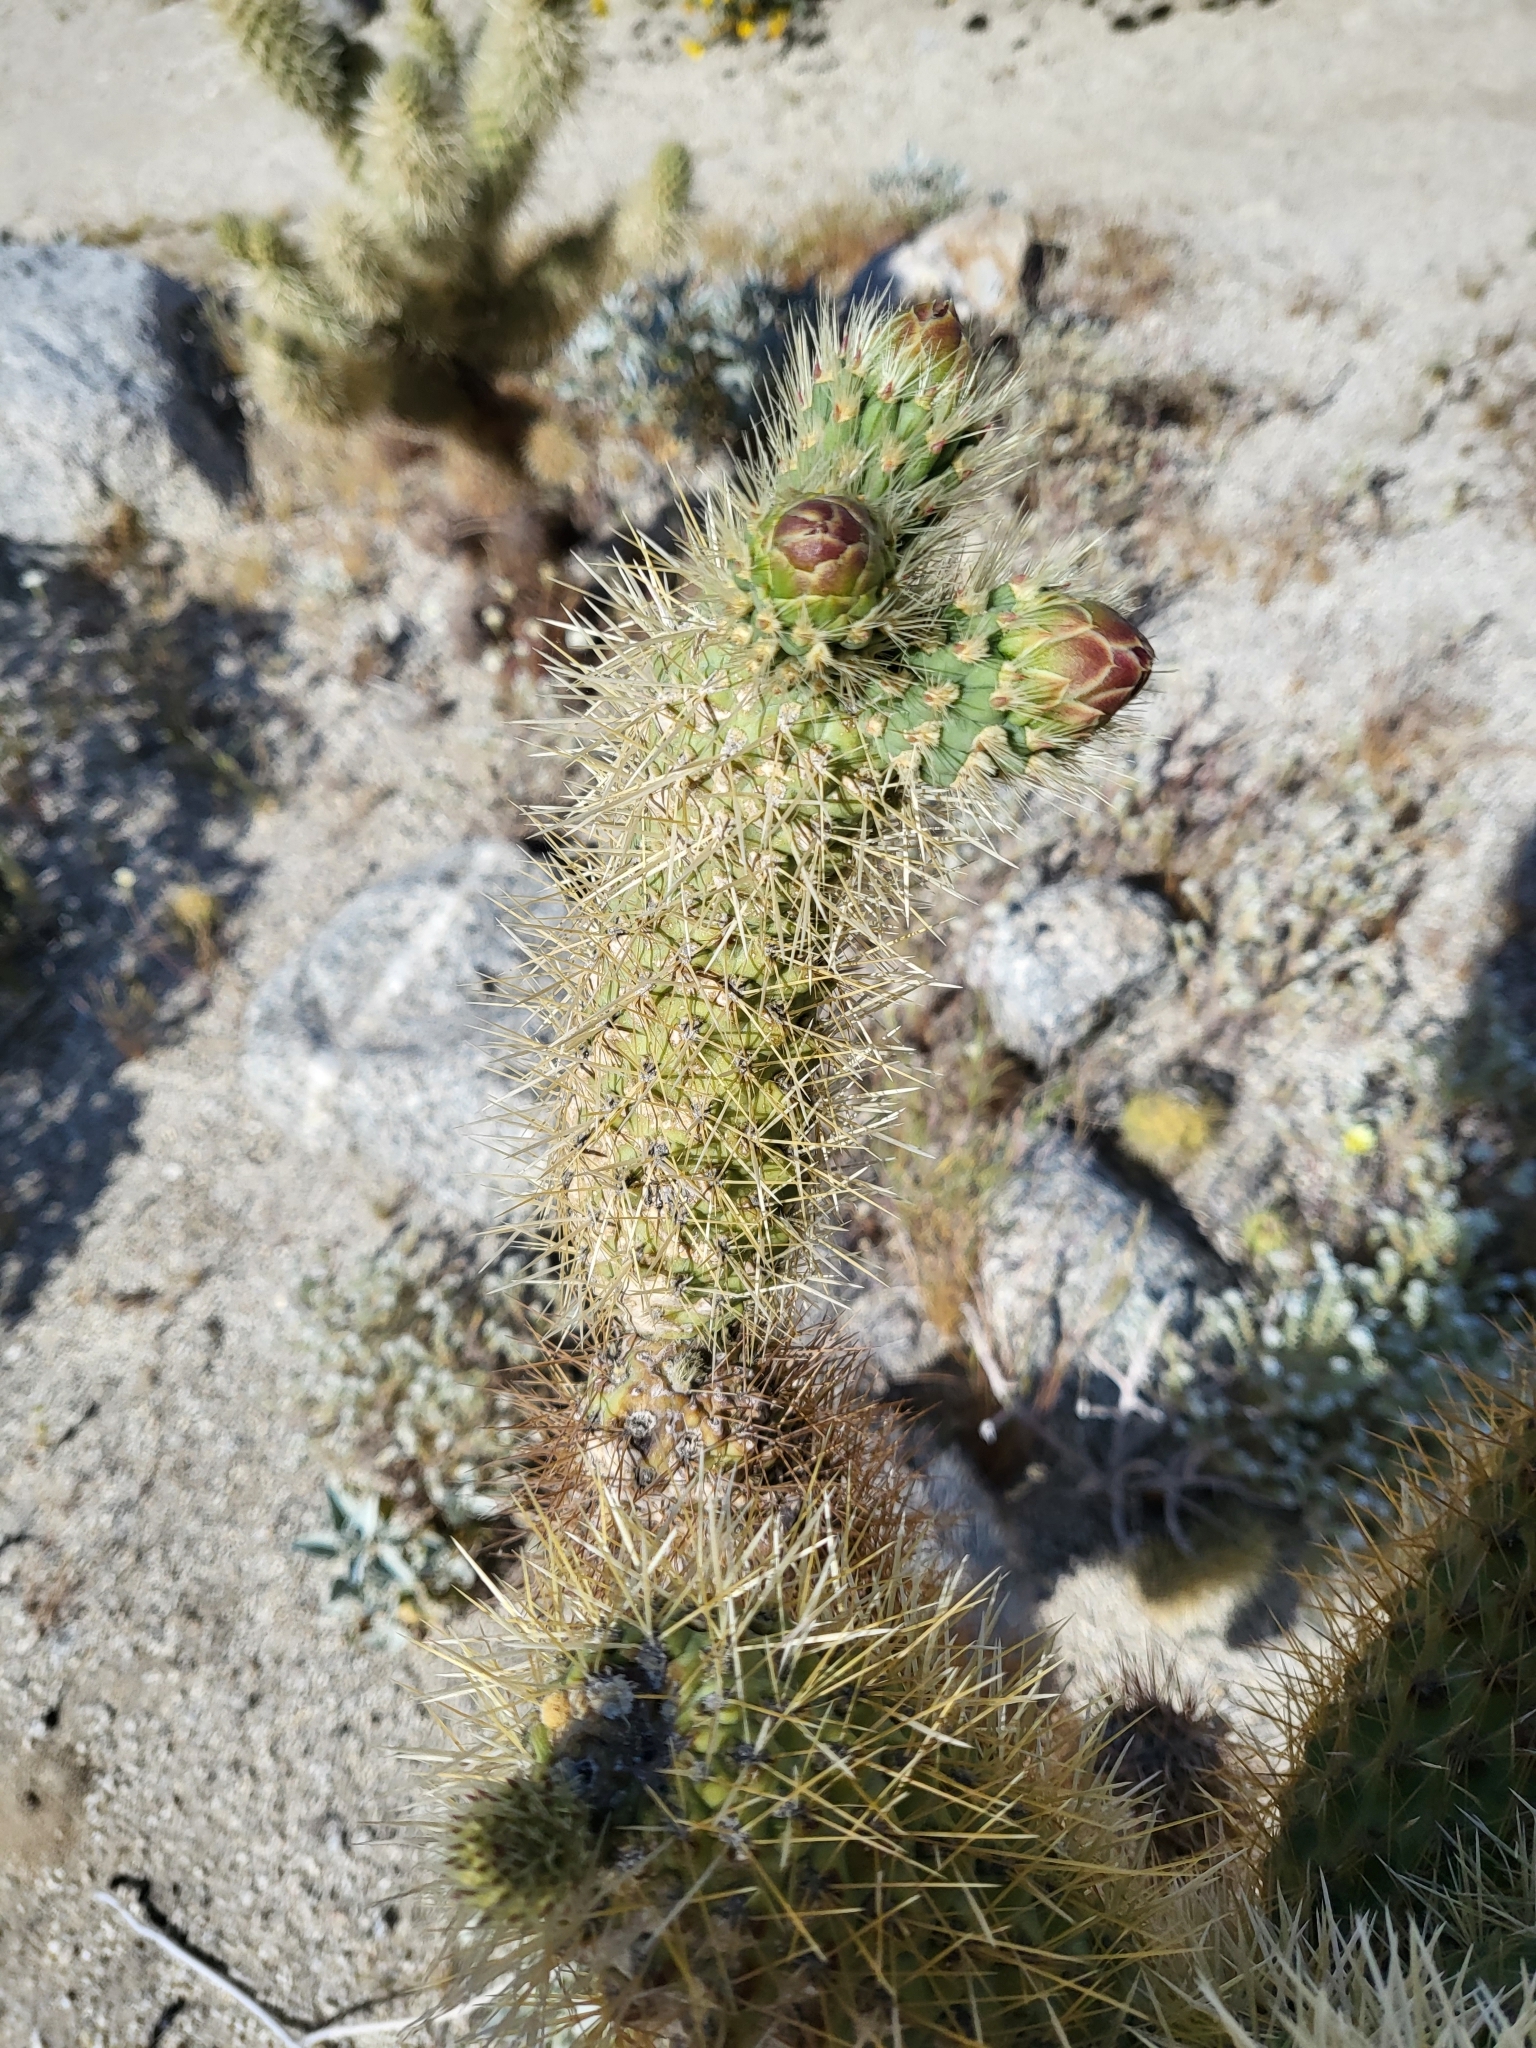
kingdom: Plantae
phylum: Tracheophyta
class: Magnoliopsida
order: Caryophyllales
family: Cactaceae
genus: Cylindropuntia
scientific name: Cylindropuntia fosbergii
